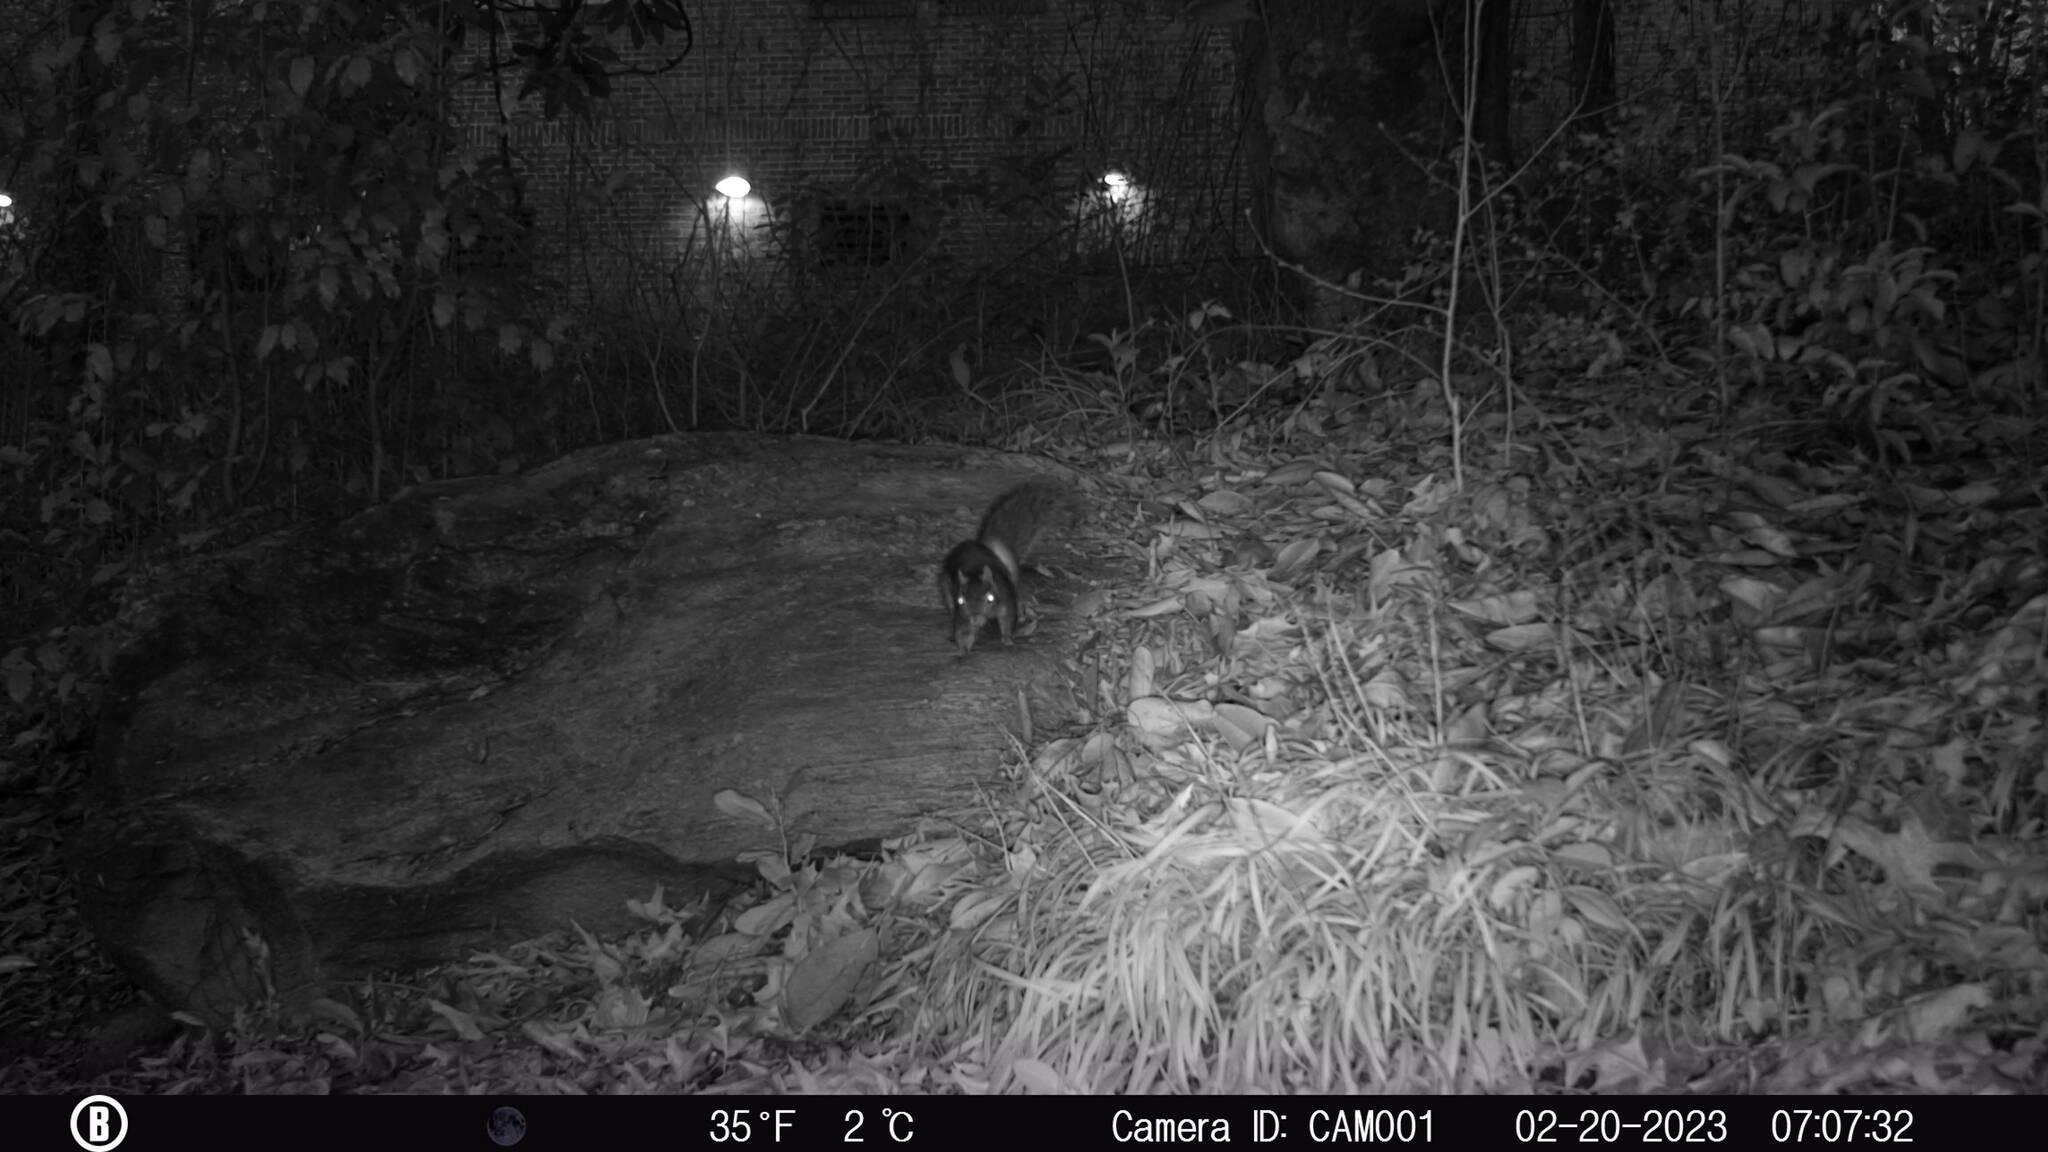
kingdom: Animalia
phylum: Chordata
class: Mammalia
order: Rodentia
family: Sciuridae
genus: Sciurus
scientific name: Sciurus carolinensis
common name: Eastern gray squirrel
